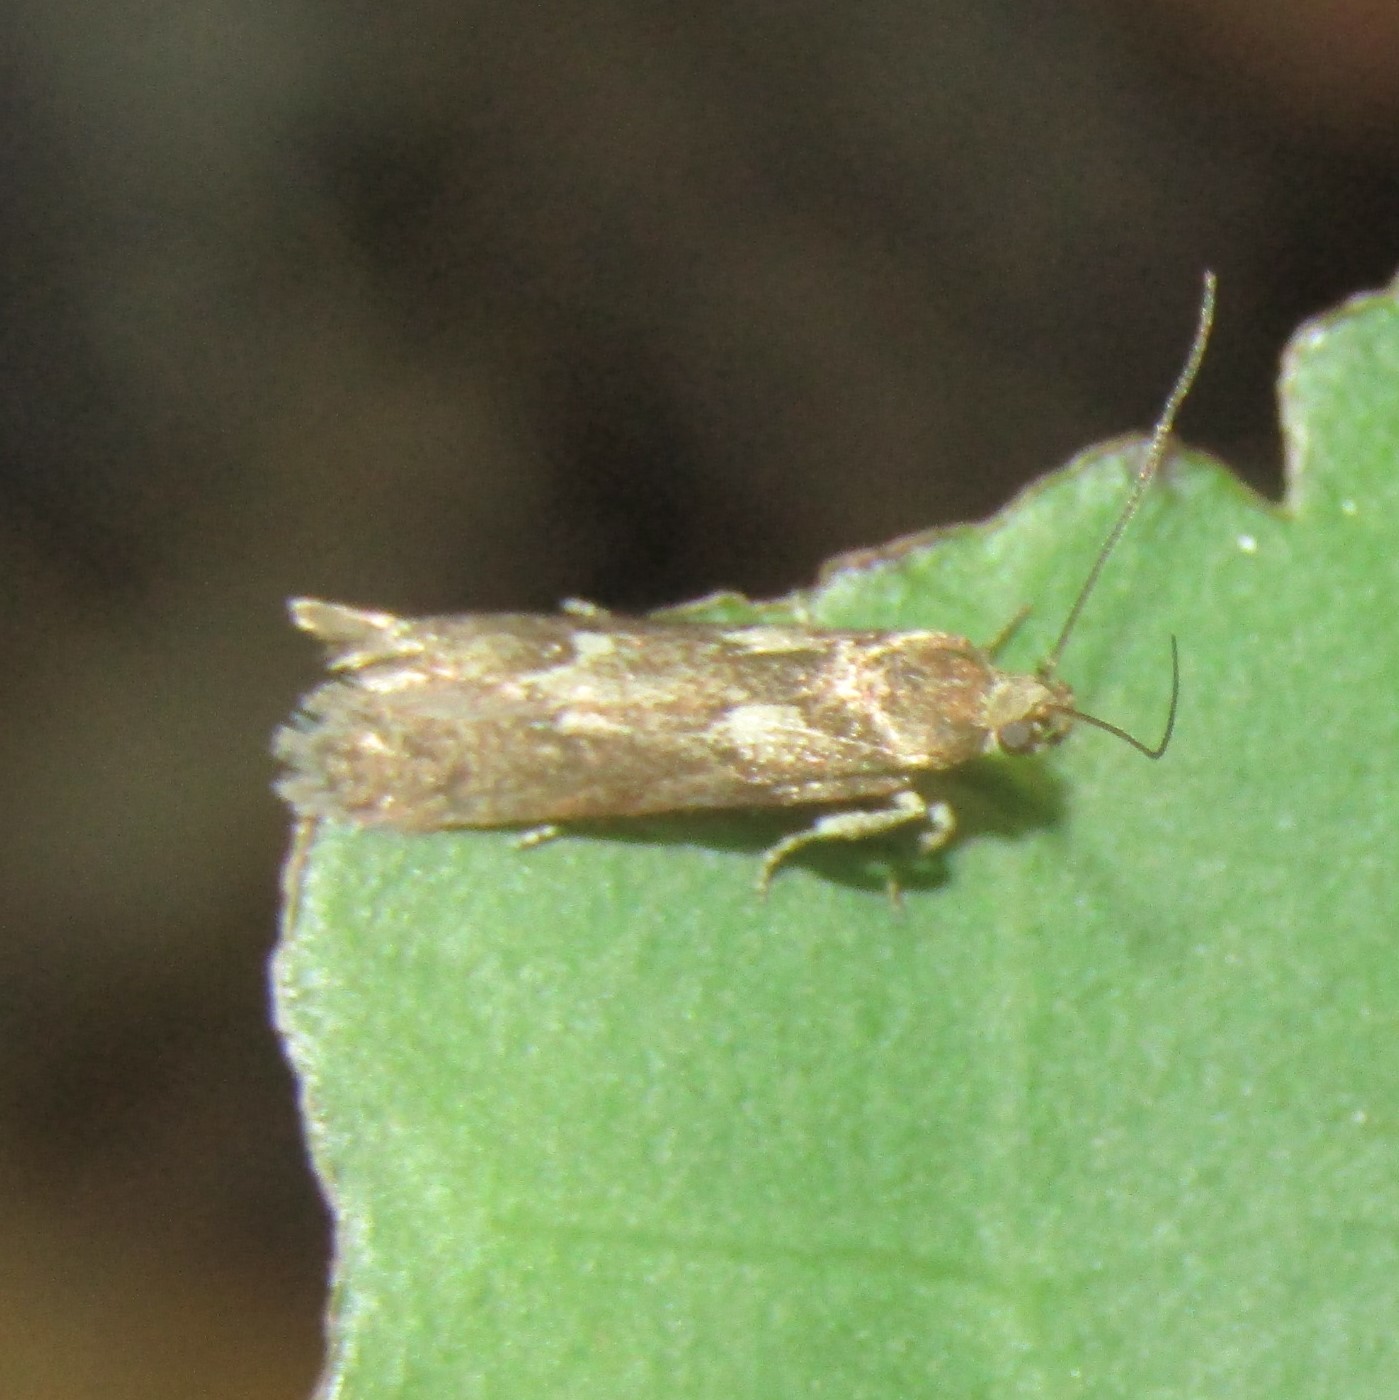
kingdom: Animalia
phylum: Arthropoda
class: Insecta
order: Lepidoptera
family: Oecophoridae
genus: Chersadaula
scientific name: Chersadaula ochrogastra
